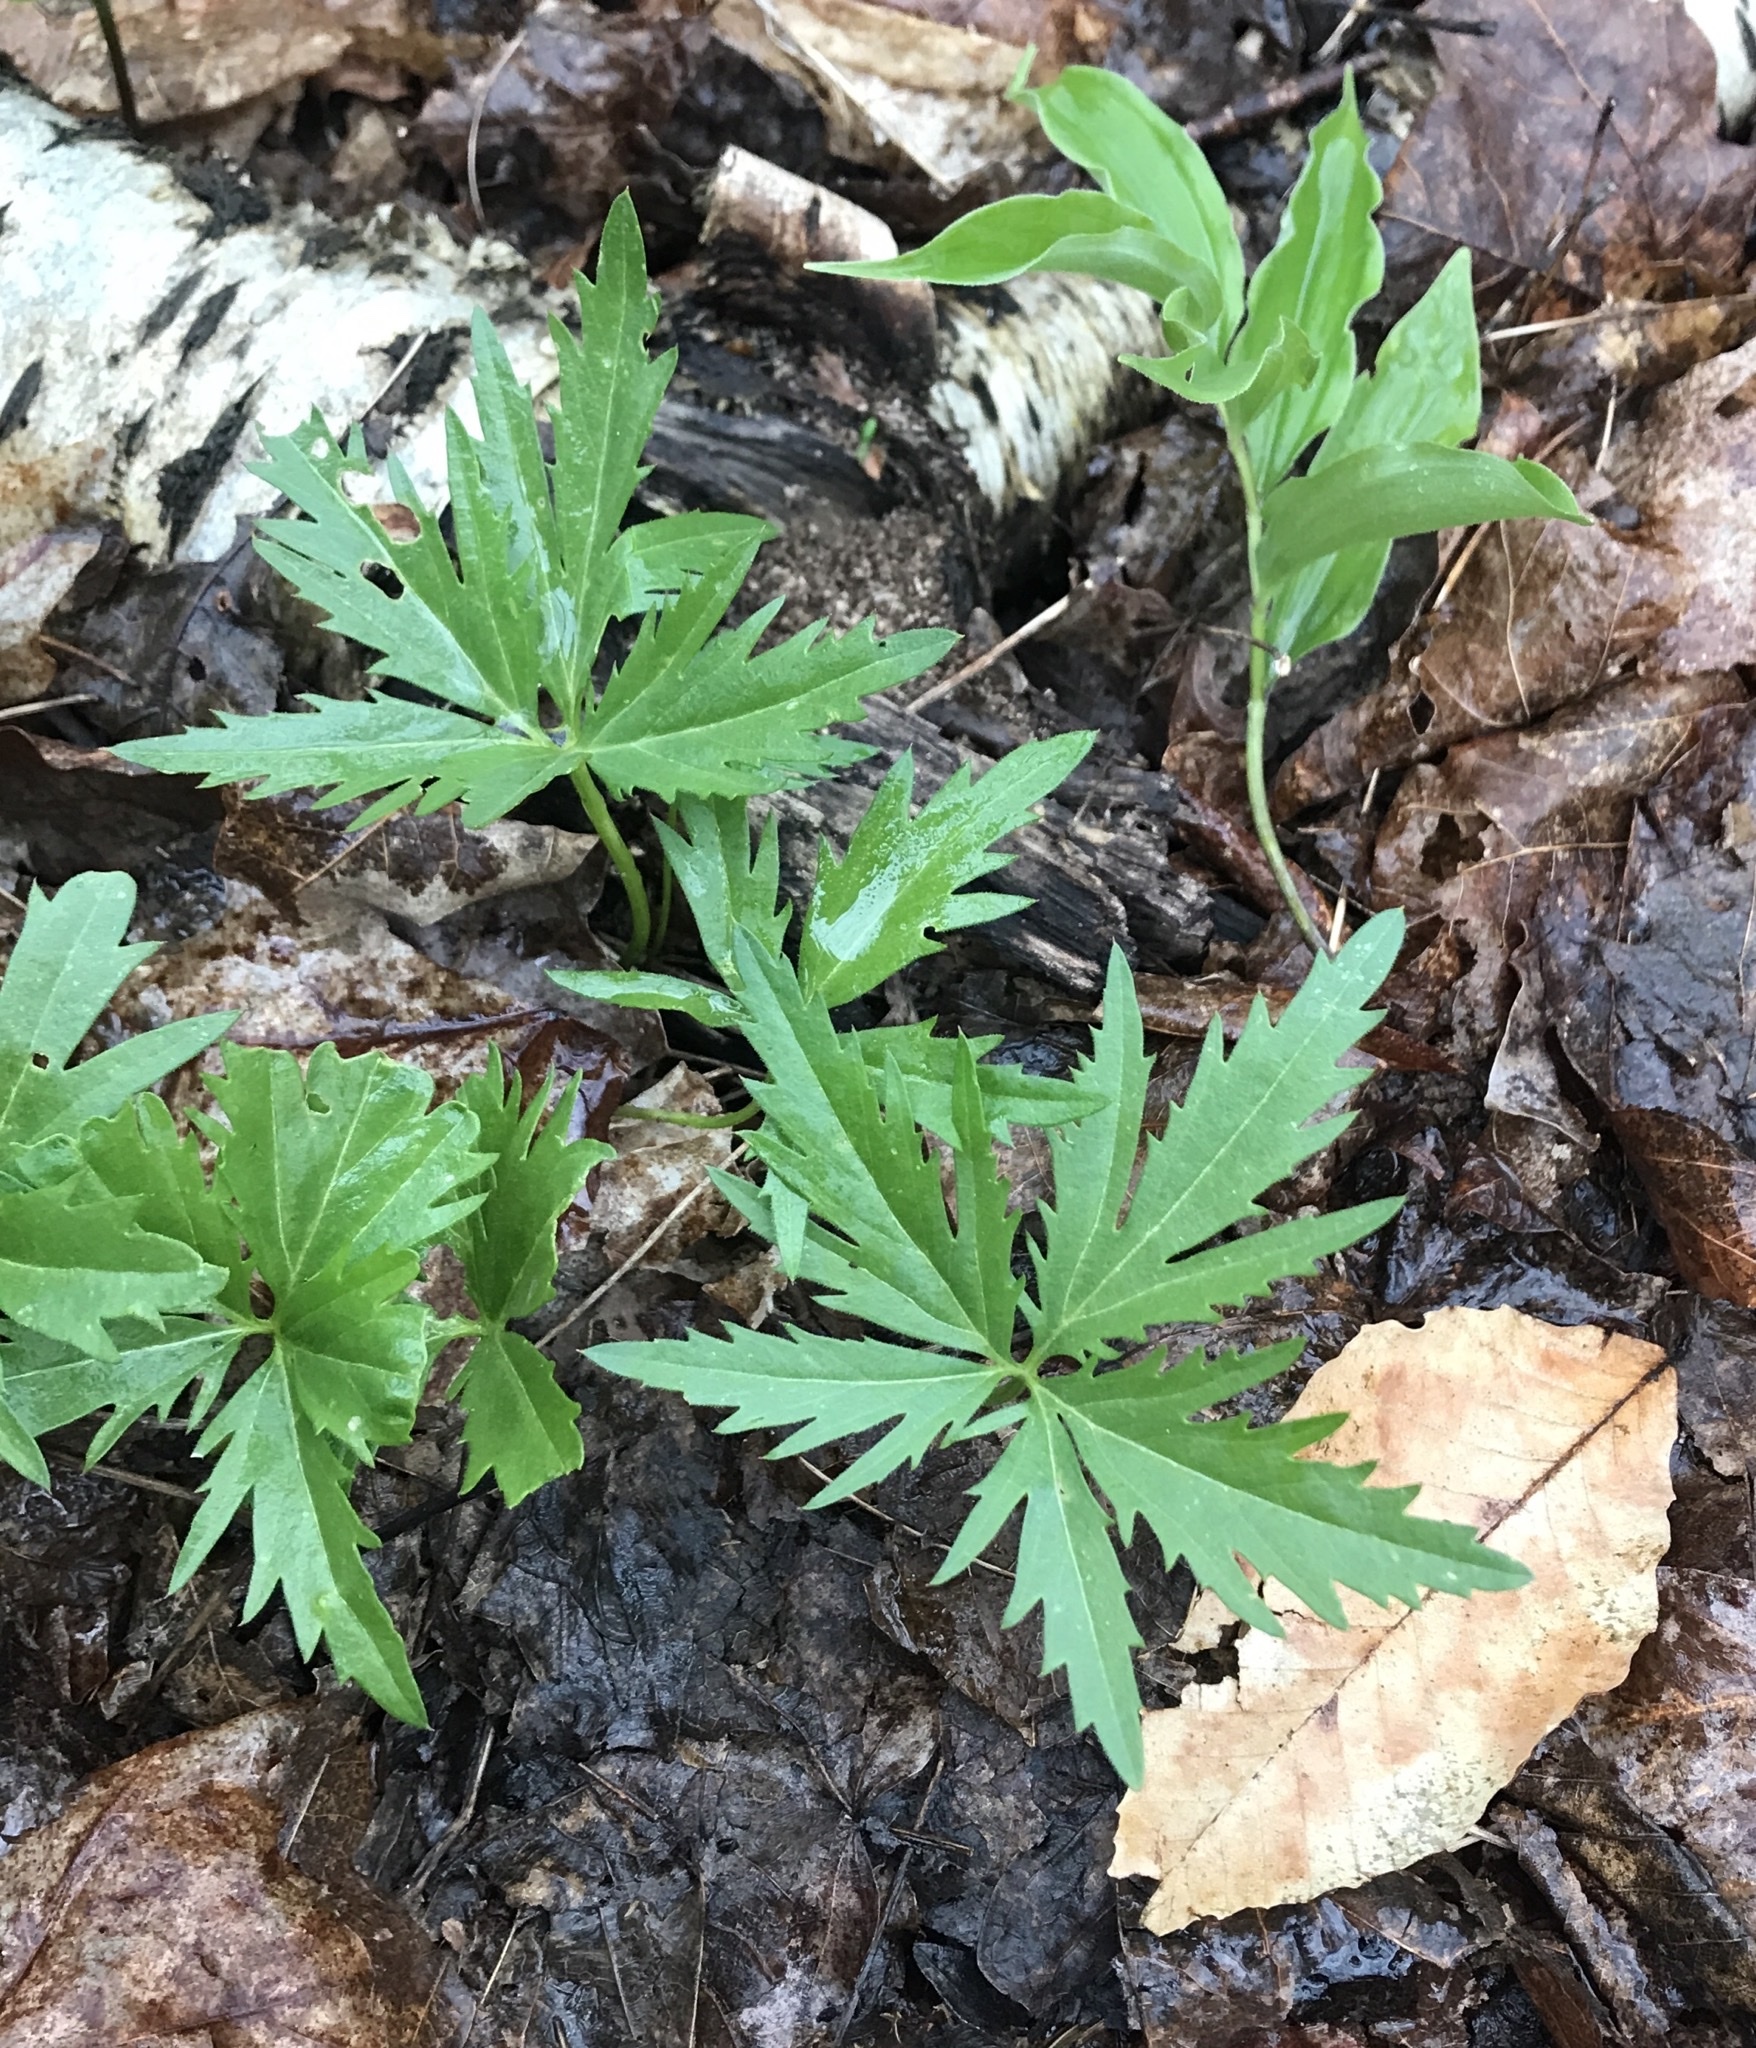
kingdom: Plantae
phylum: Tracheophyta
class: Magnoliopsida
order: Brassicales
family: Brassicaceae
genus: Cardamine
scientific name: Cardamine concatenata
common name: Cut-leaf toothcup
